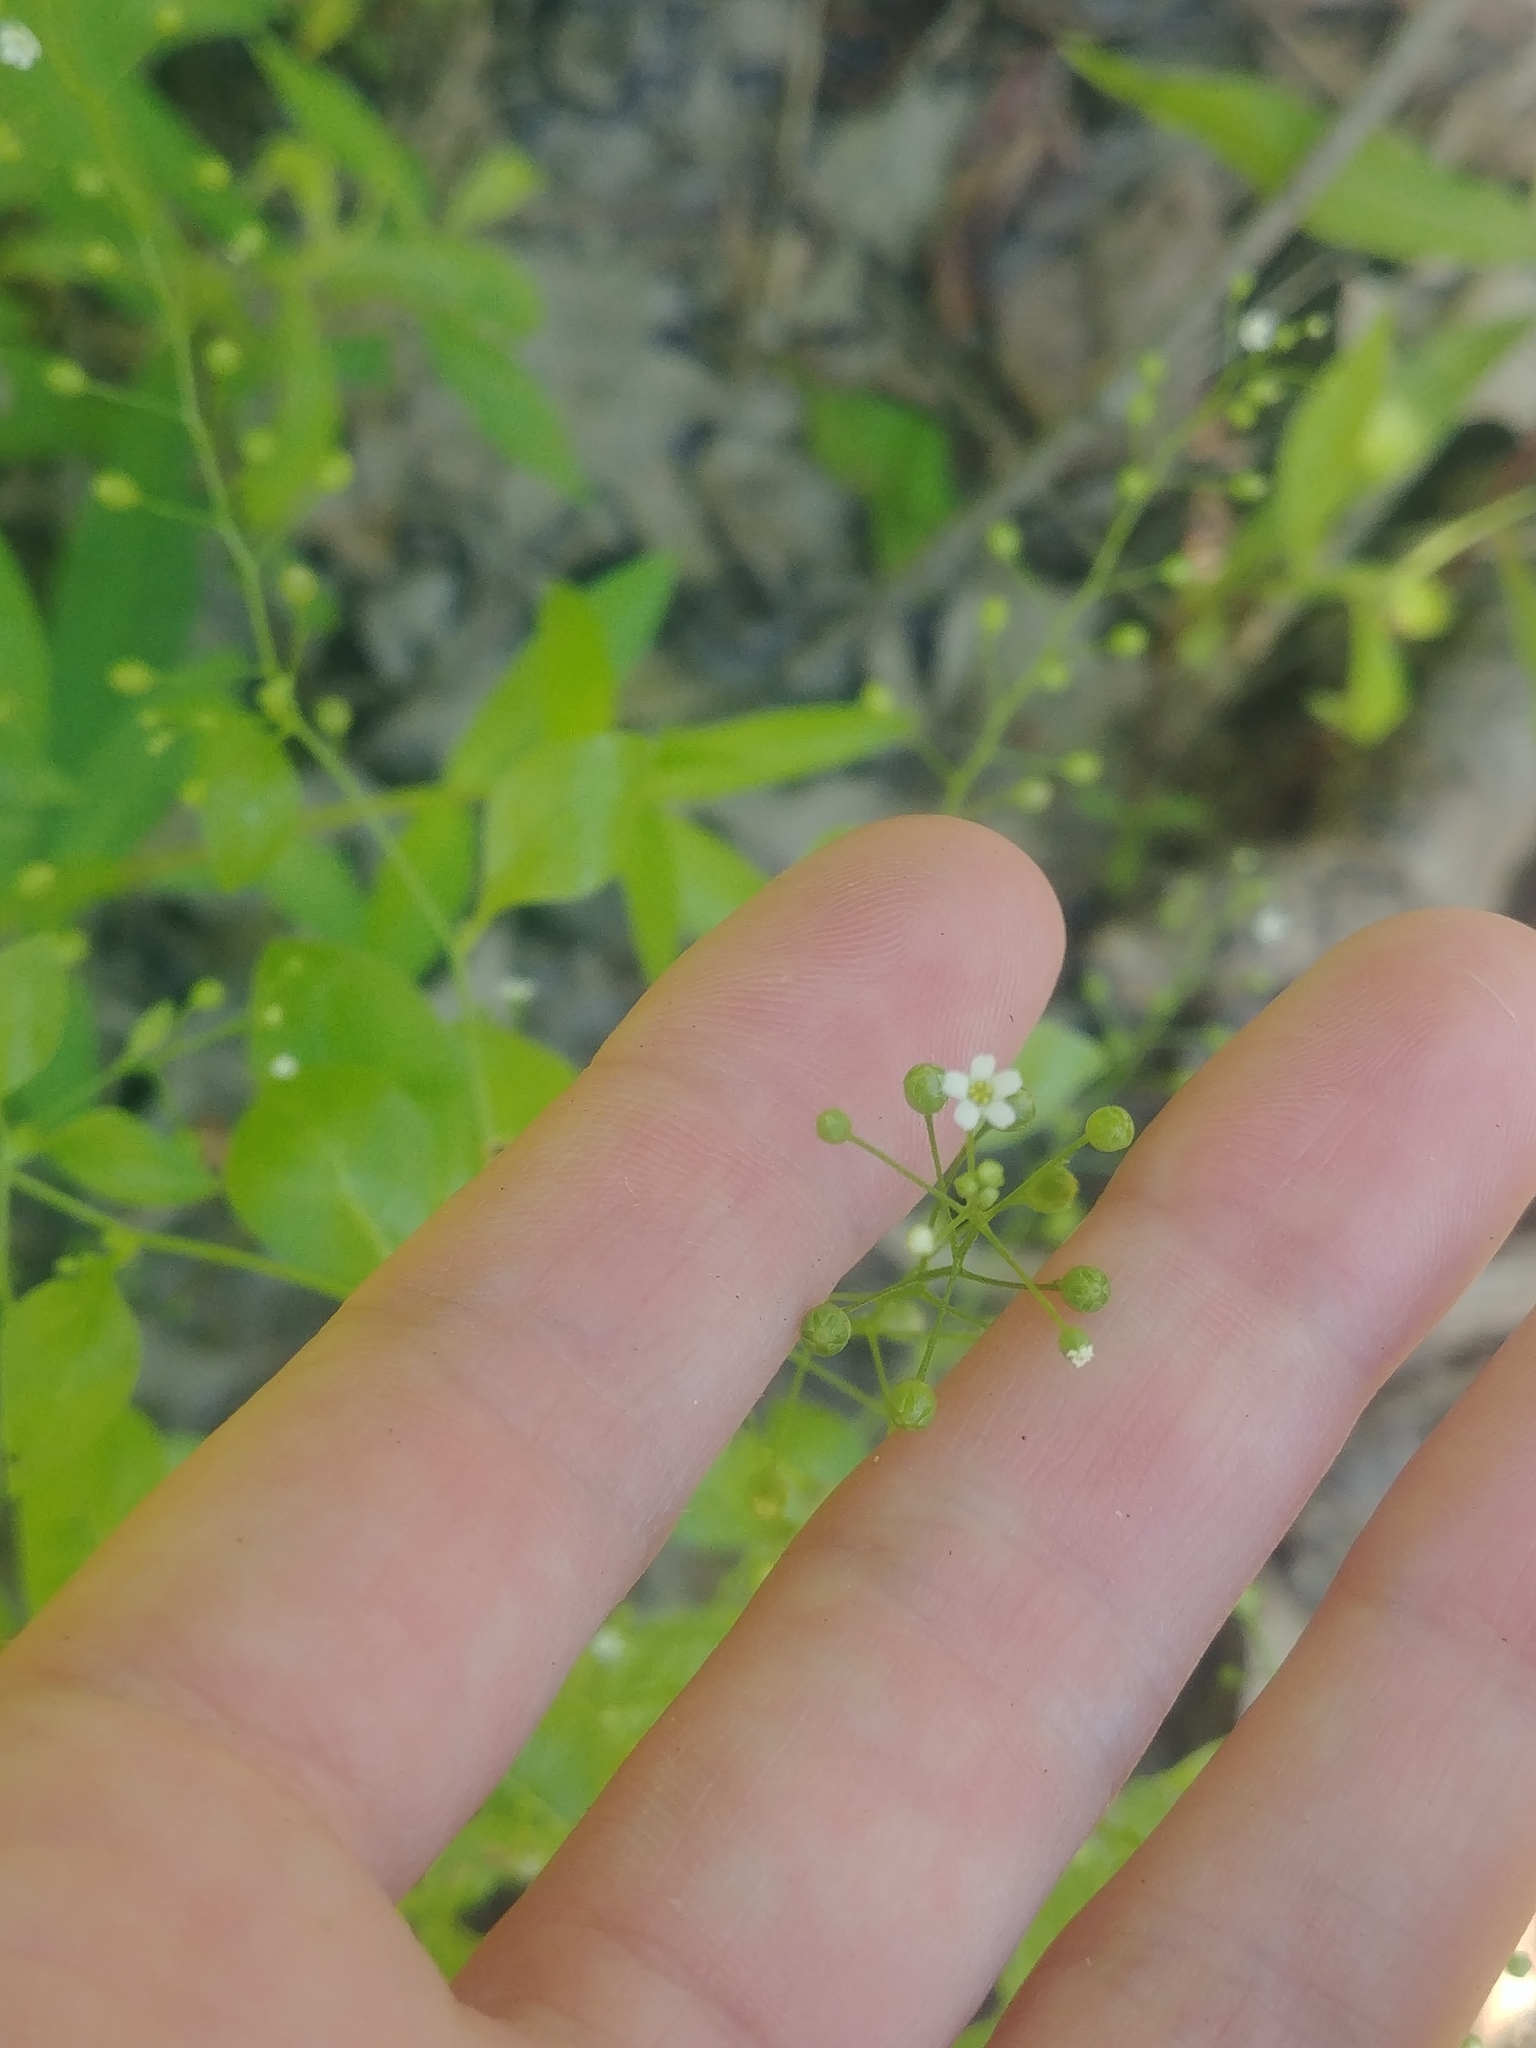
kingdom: Plantae
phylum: Tracheophyta
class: Magnoliopsida
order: Ericales
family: Primulaceae
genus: Samolus
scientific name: Samolus parviflorus
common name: False water pimpernel
